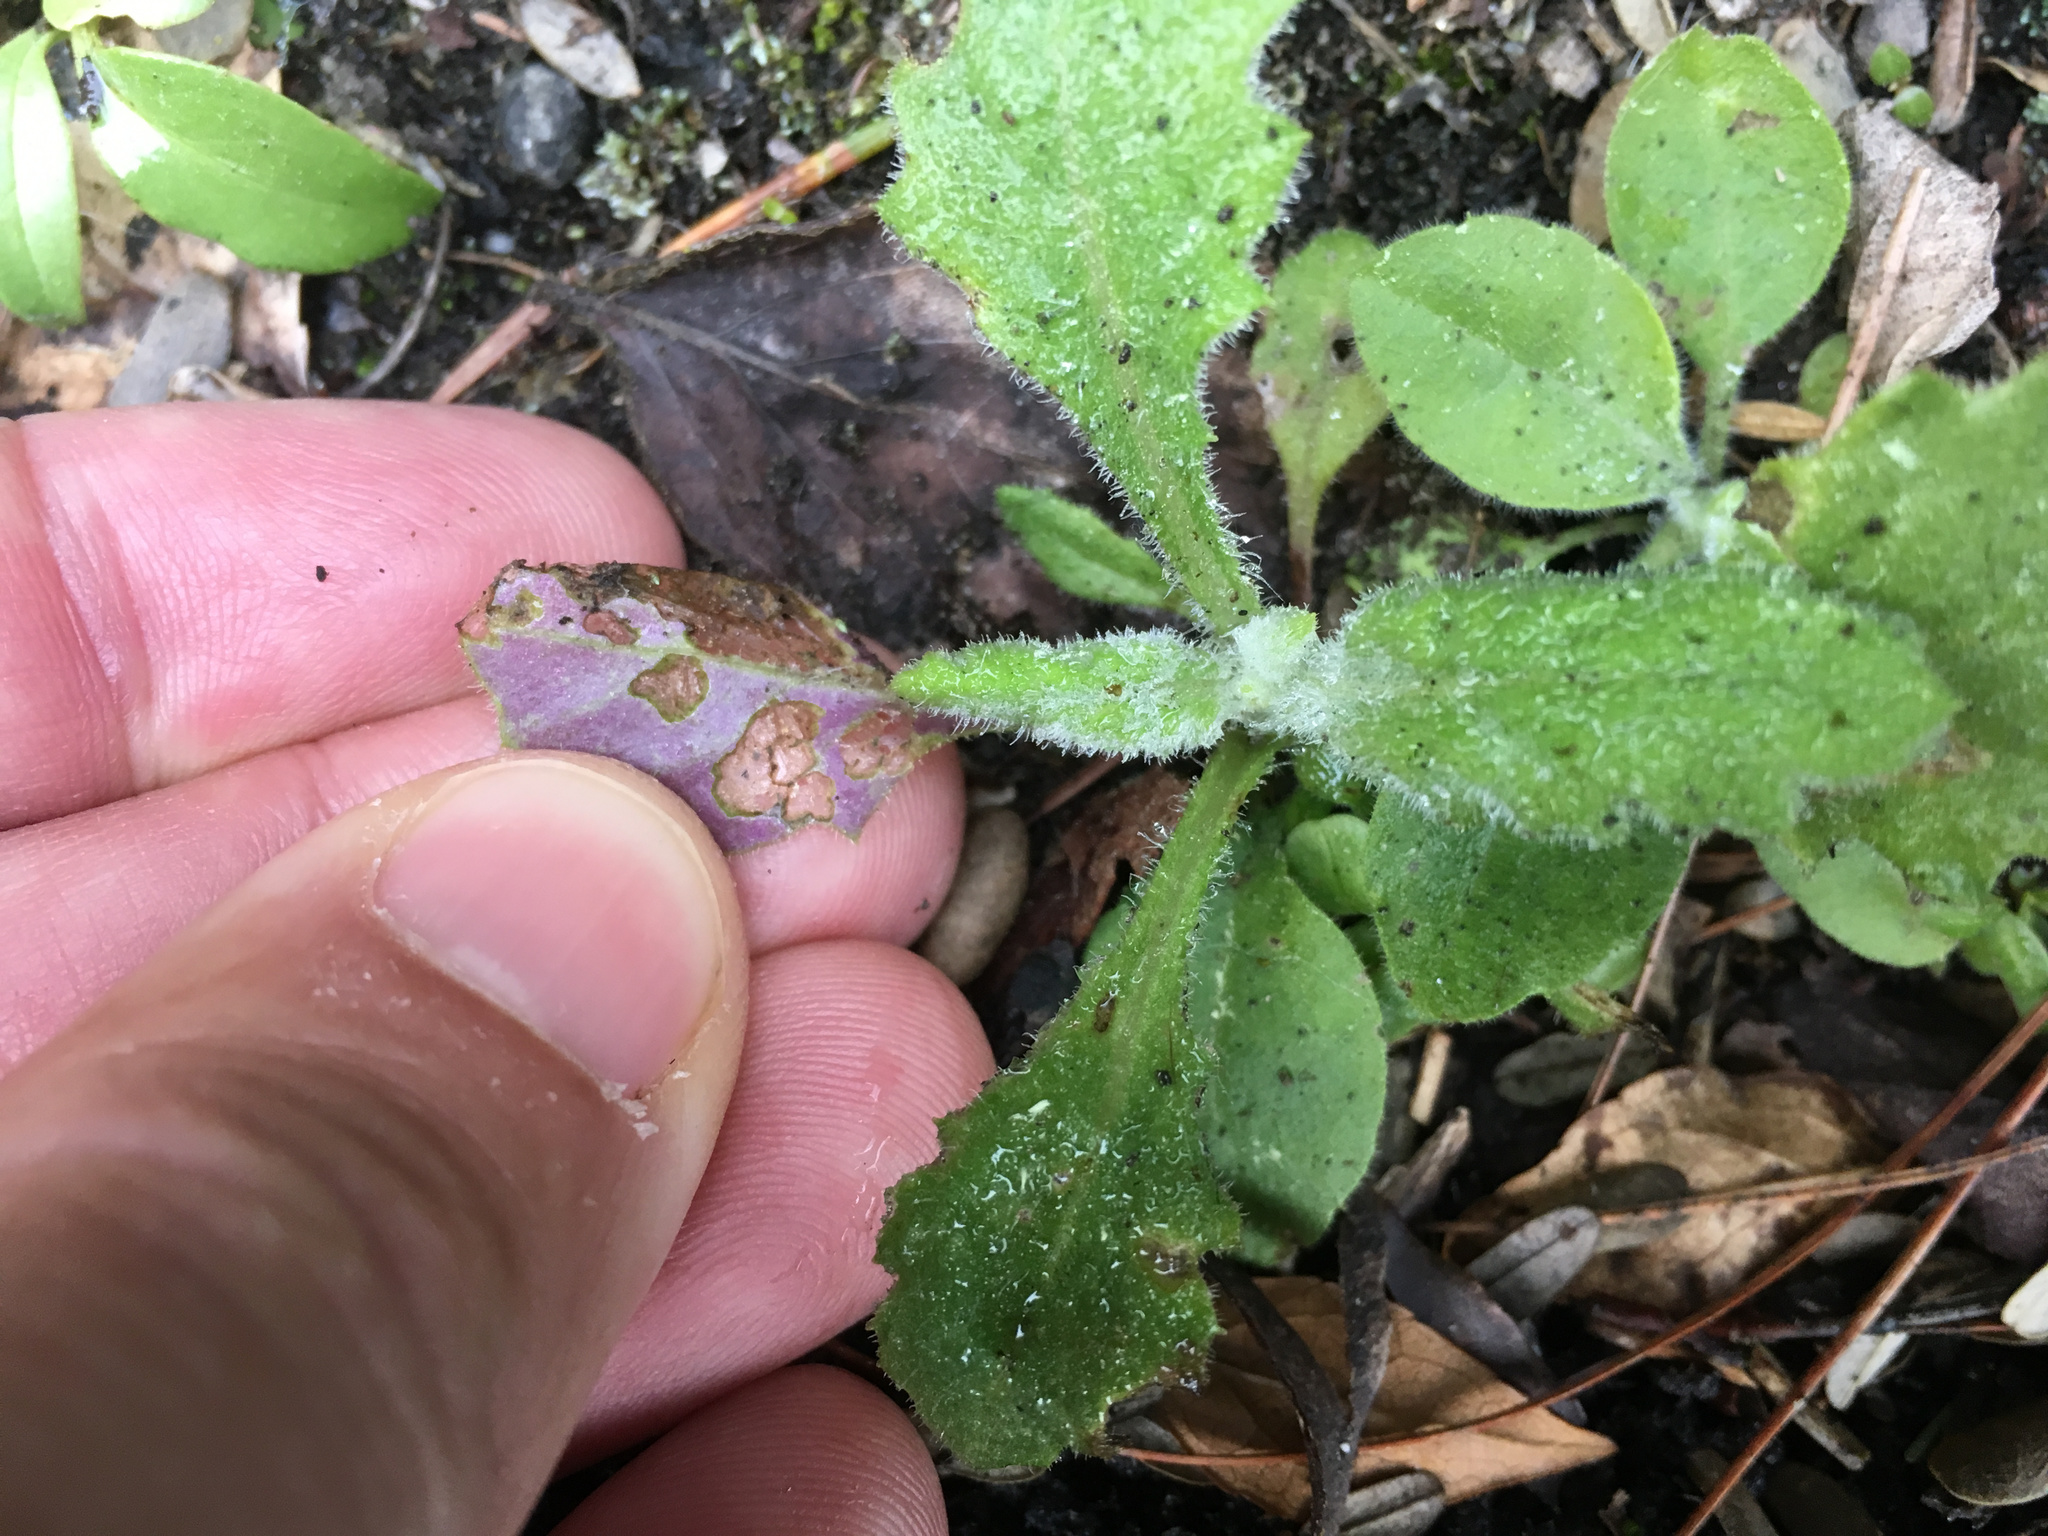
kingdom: Plantae
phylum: Tracheophyta
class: Magnoliopsida
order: Asterales
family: Asteraceae
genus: Senecio
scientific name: Senecio glomeratus
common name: Cutleaf burnweed
